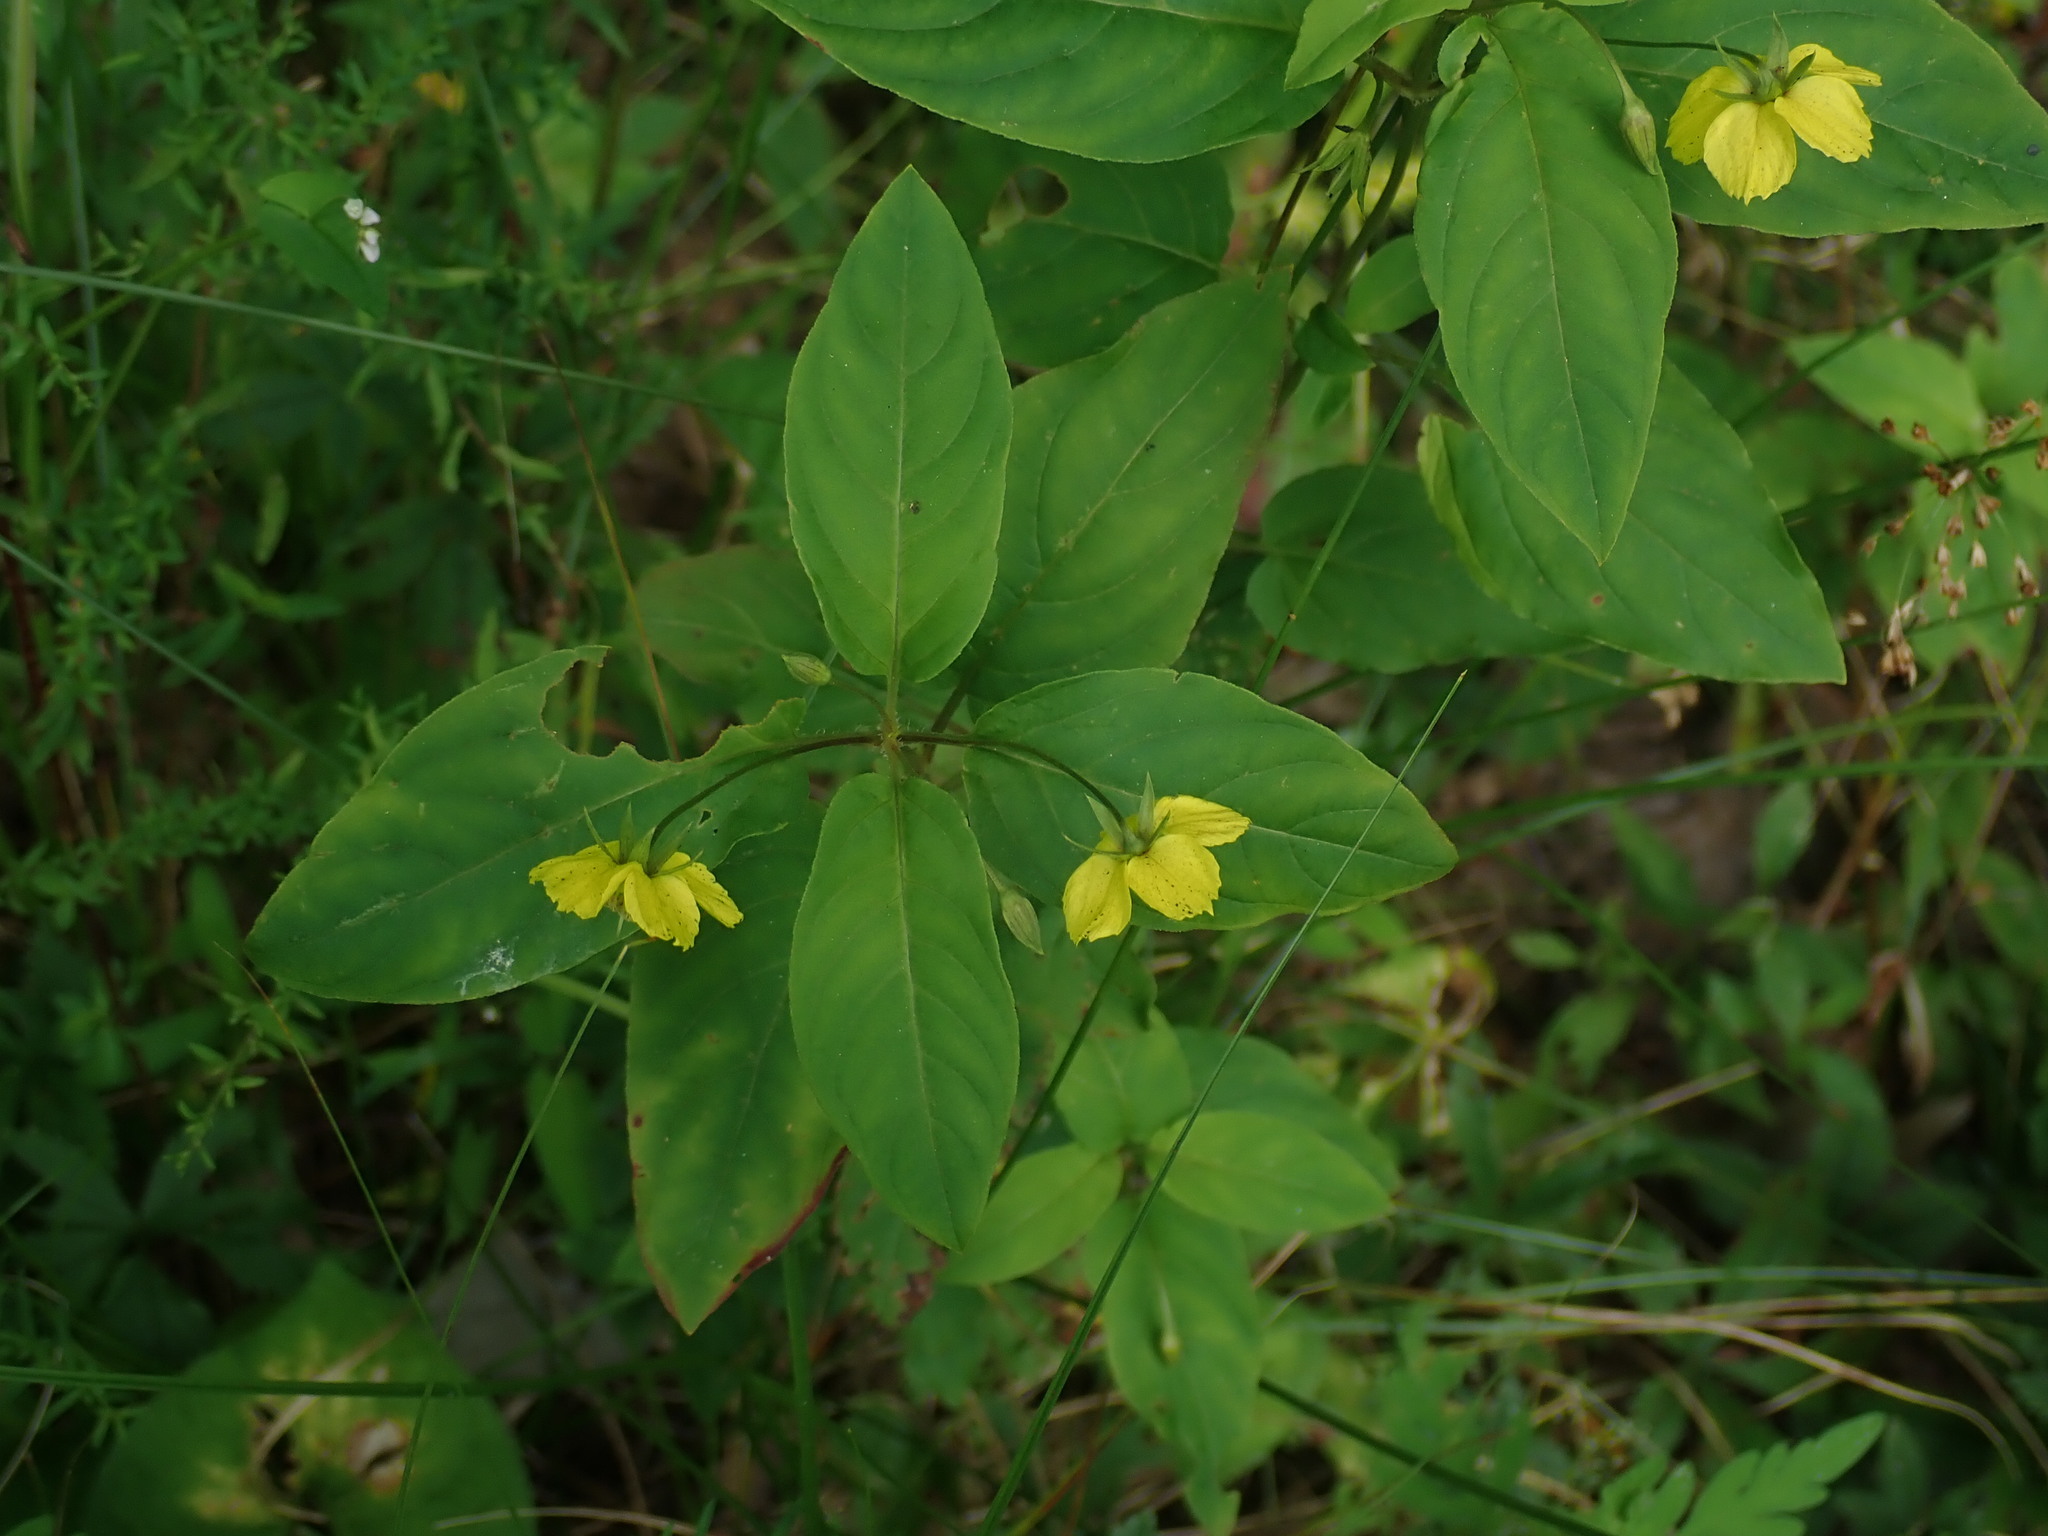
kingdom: Plantae
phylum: Tracheophyta
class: Magnoliopsida
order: Ericales
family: Primulaceae
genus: Lysimachia
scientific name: Lysimachia ciliata
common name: Fringed loosestrife
